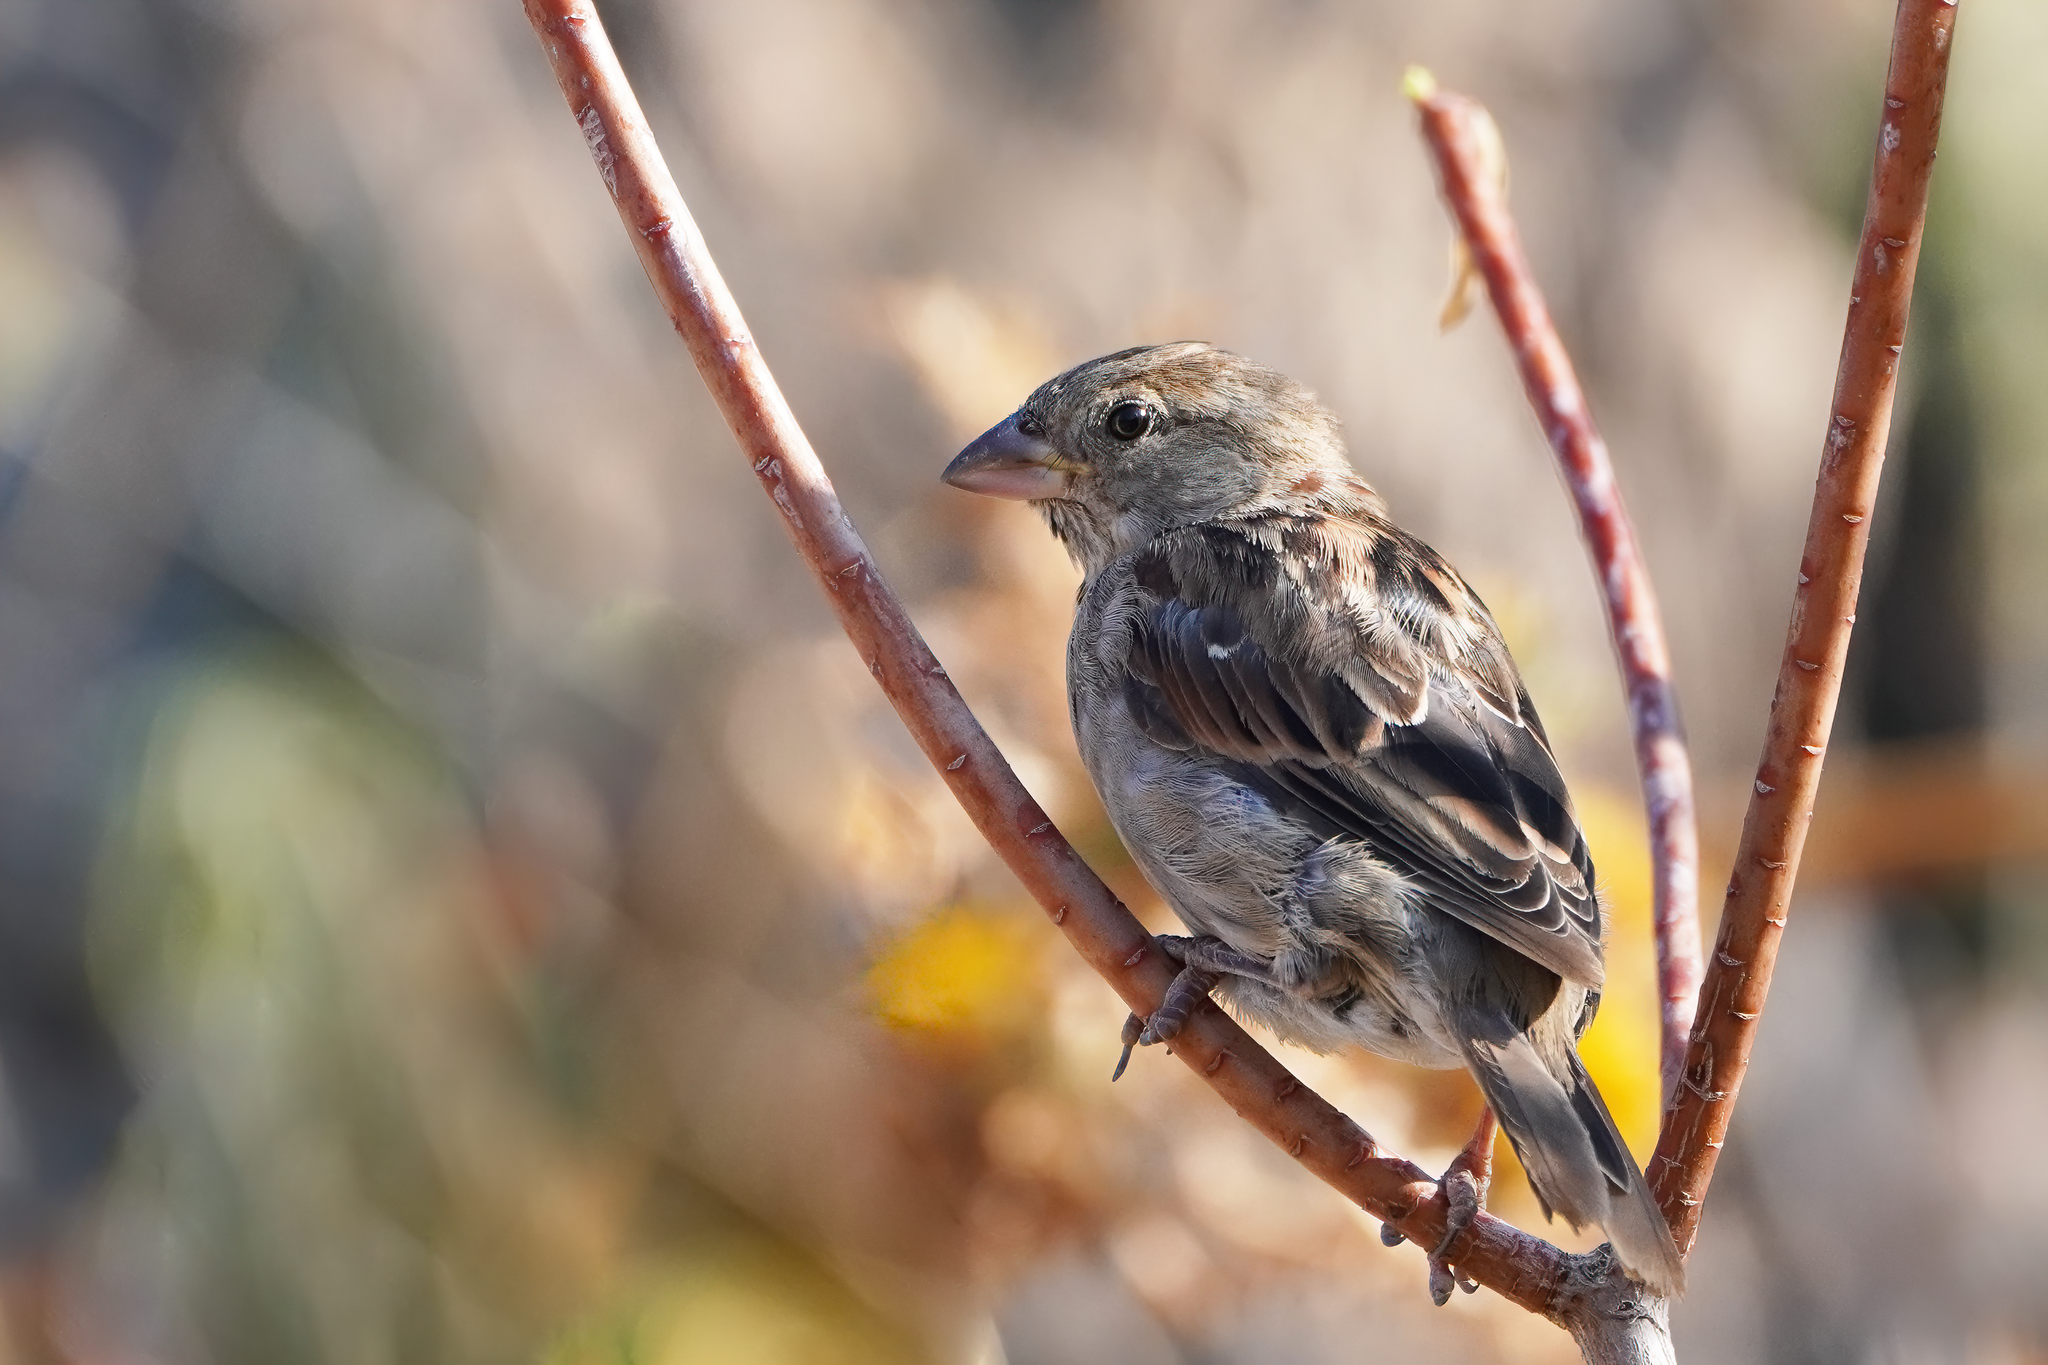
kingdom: Animalia
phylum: Chordata
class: Aves
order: Passeriformes
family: Passeridae
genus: Passer
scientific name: Passer domesticus
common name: House sparrow
